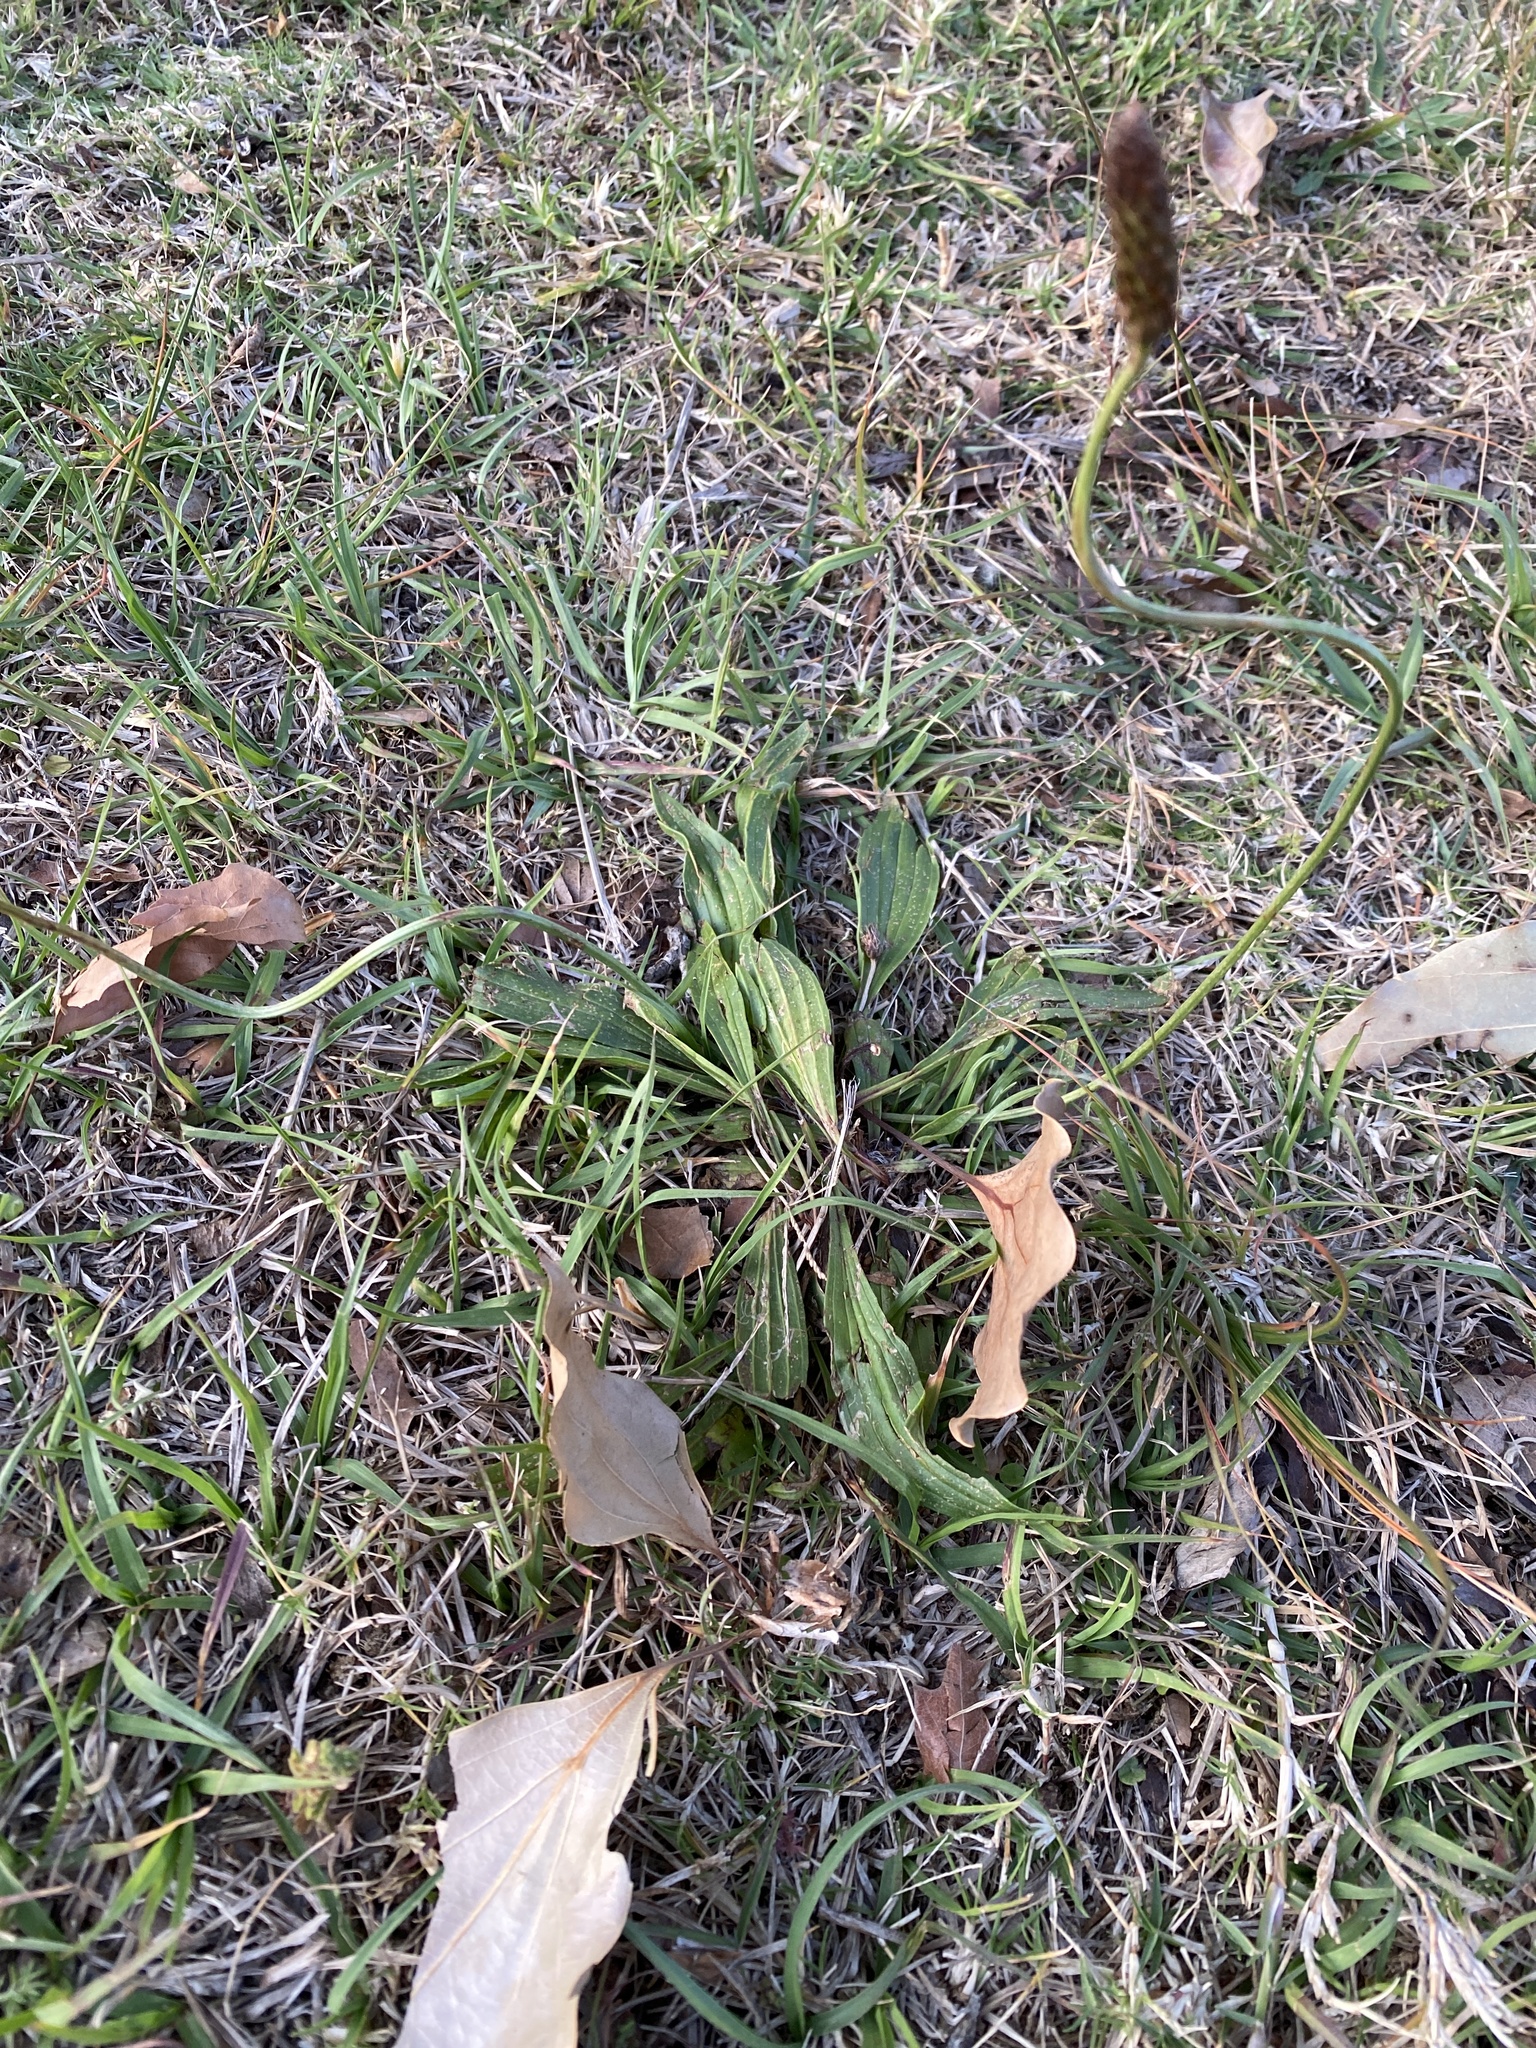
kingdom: Plantae
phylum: Tracheophyta
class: Magnoliopsida
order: Lamiales
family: Plantaginaceae
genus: Plantago
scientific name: Plantago lanceolata
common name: Ribwort plantain
